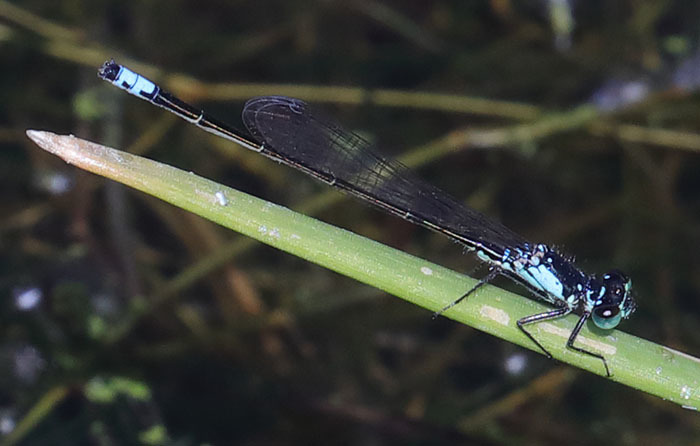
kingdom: Animalia
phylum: Arthropoda
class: Insecta
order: Odonata
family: Coenagrionidae
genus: Ischnura
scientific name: Ischnura cervula
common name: Pacific forktail
